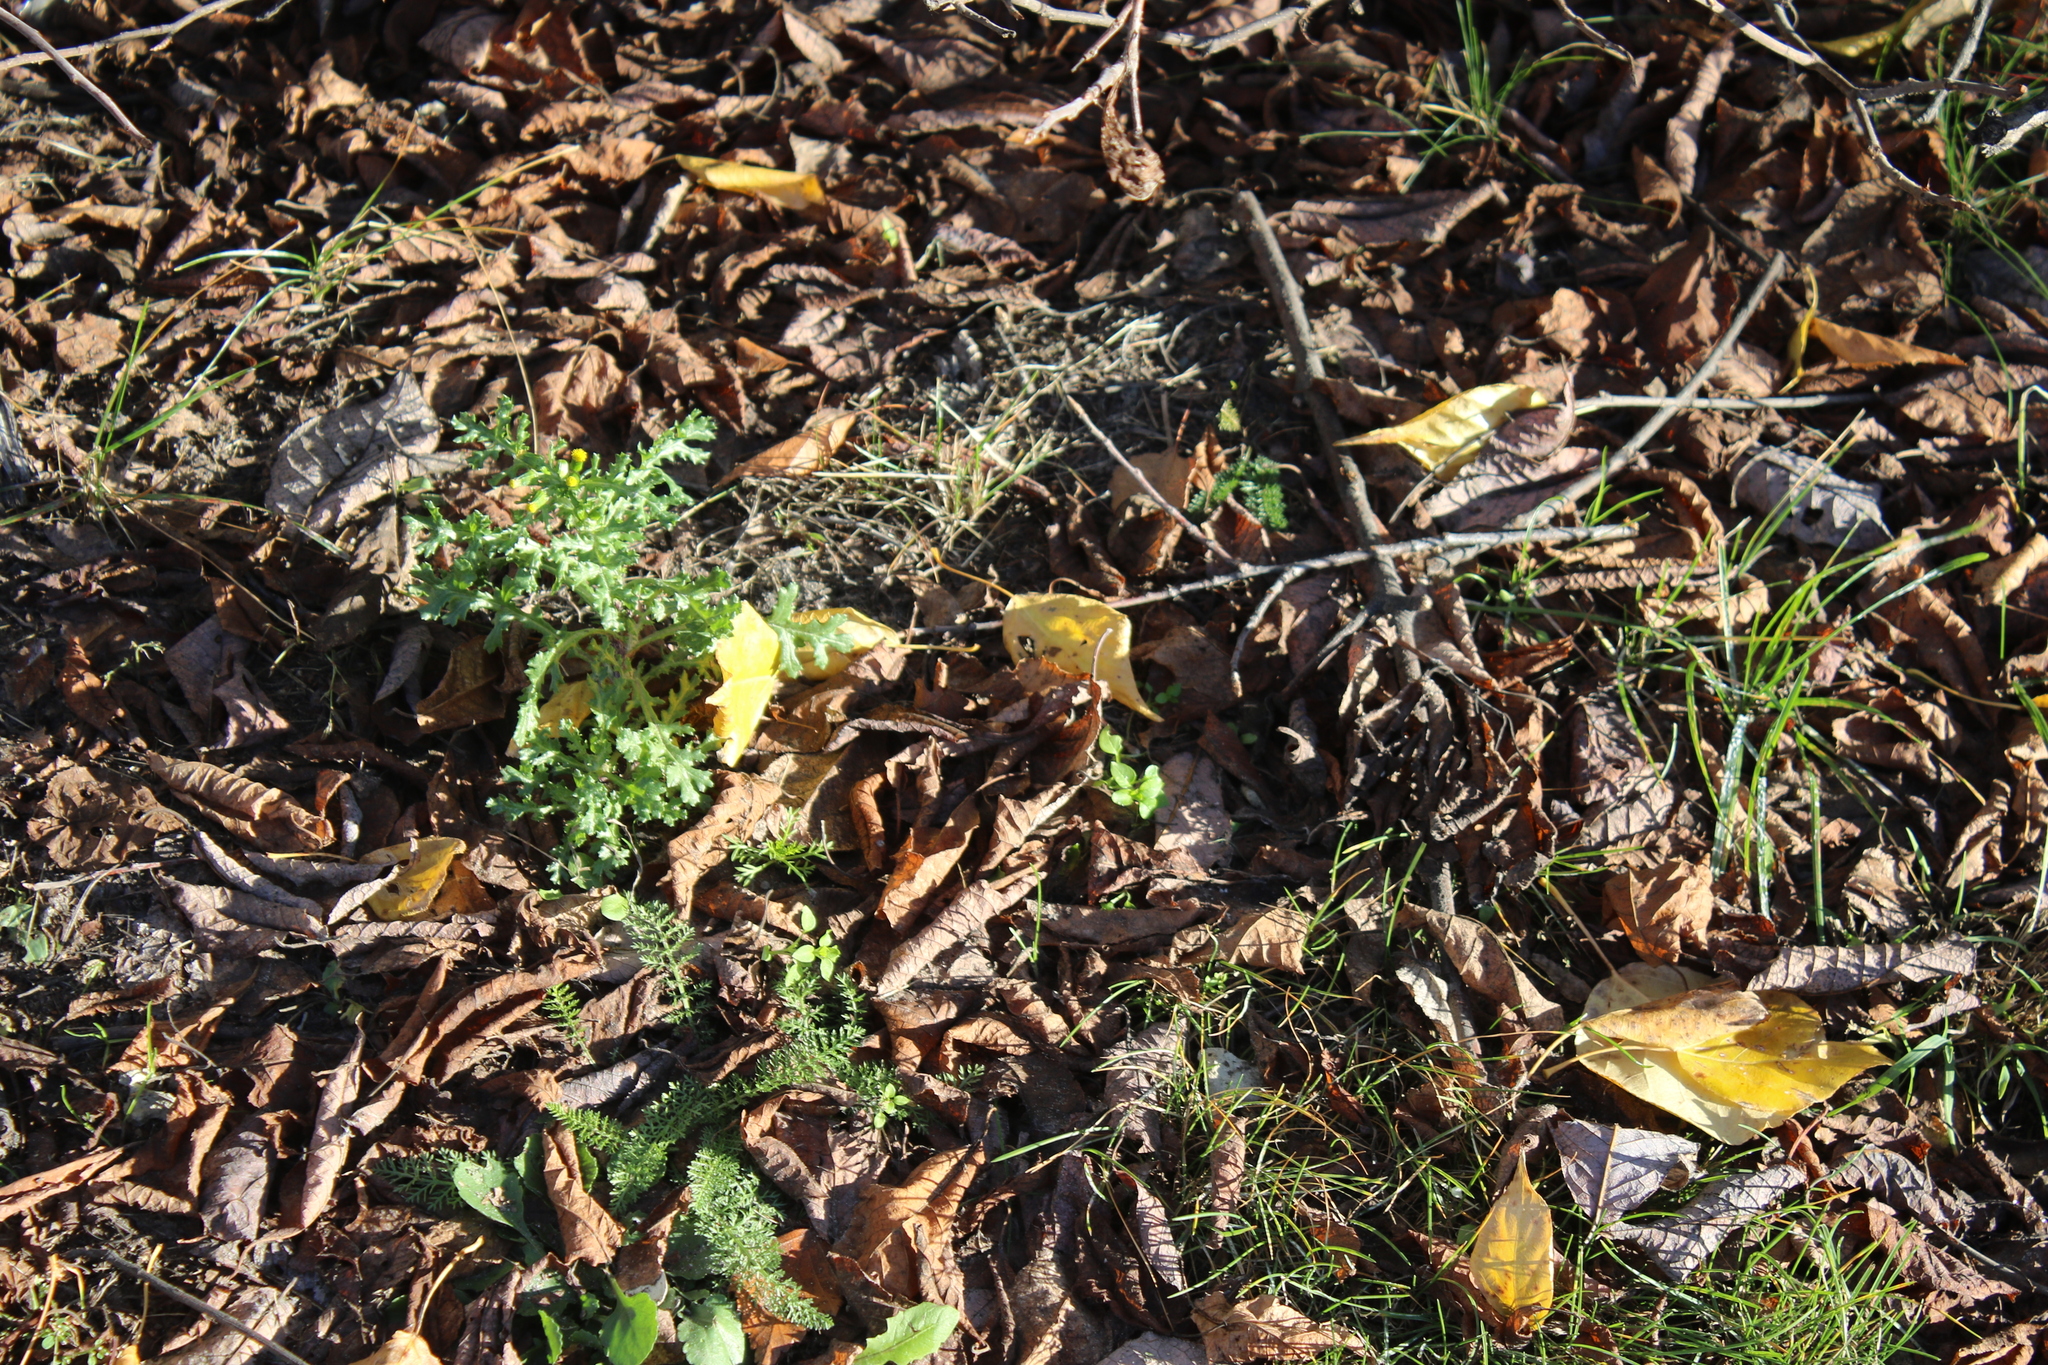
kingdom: Plantae
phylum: Tracheophyta
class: Magnoliopsida
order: Asterales
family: Asteraceae
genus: Senecio
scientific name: Senecio vulgaris
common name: Old-man-in-the-spring
